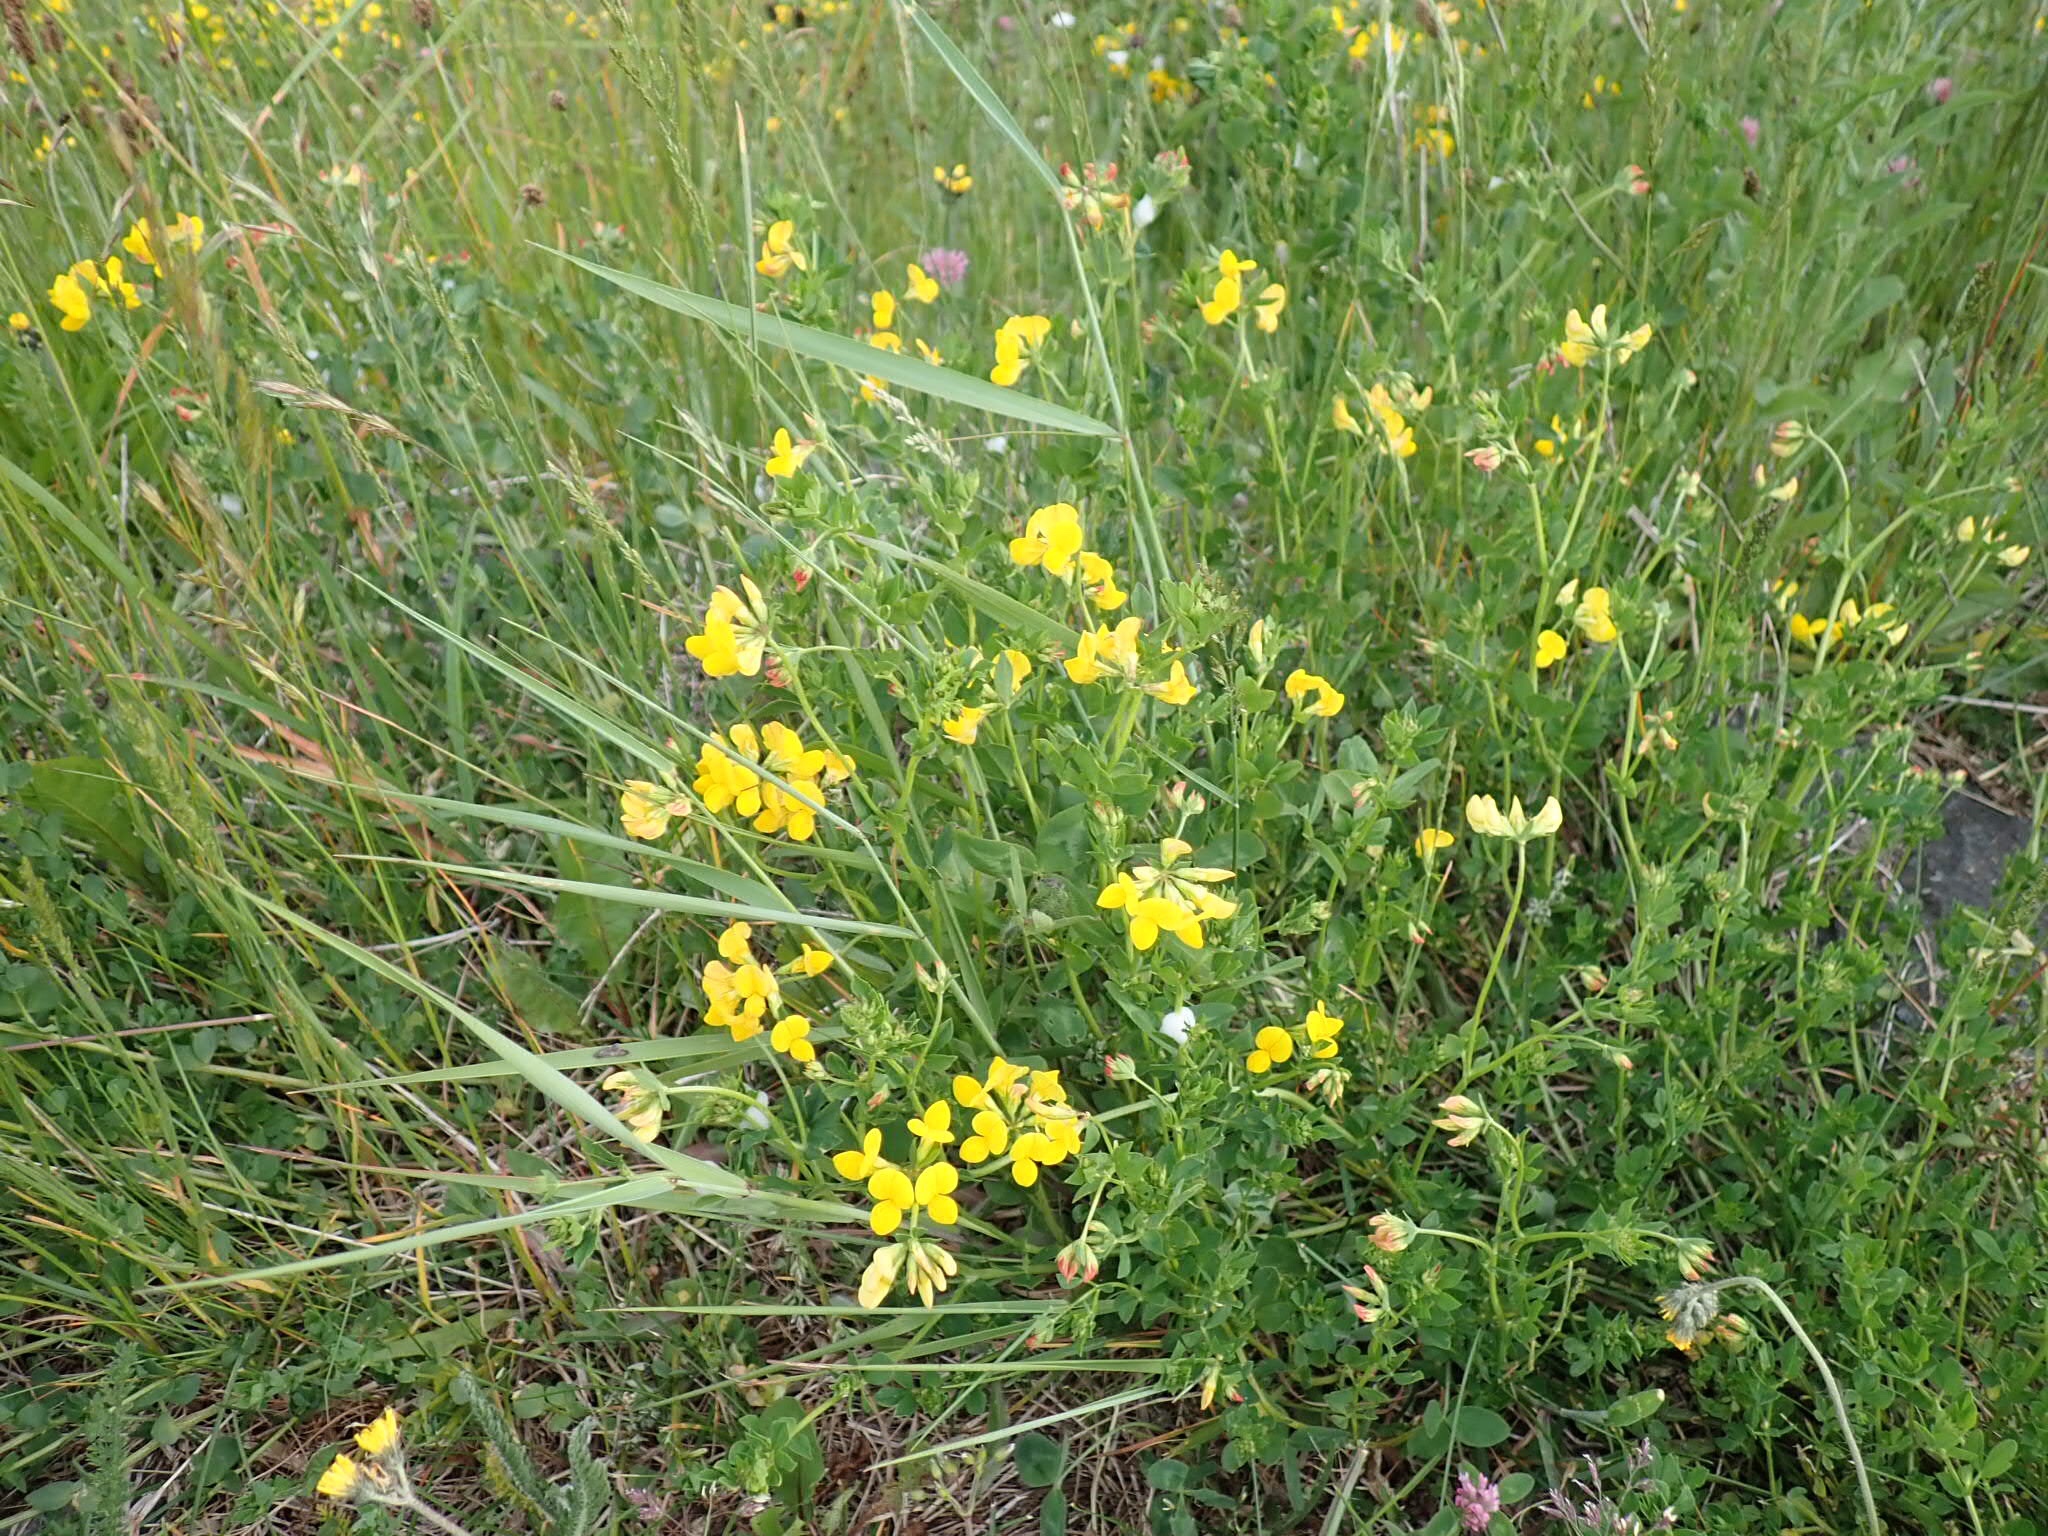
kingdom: Plantae
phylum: Tracheophyta
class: Magnoliopsida
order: Fabales
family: Fabaceae
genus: Lotus
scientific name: Lotus corniculatus
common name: Common bird's-foot-trefoil
